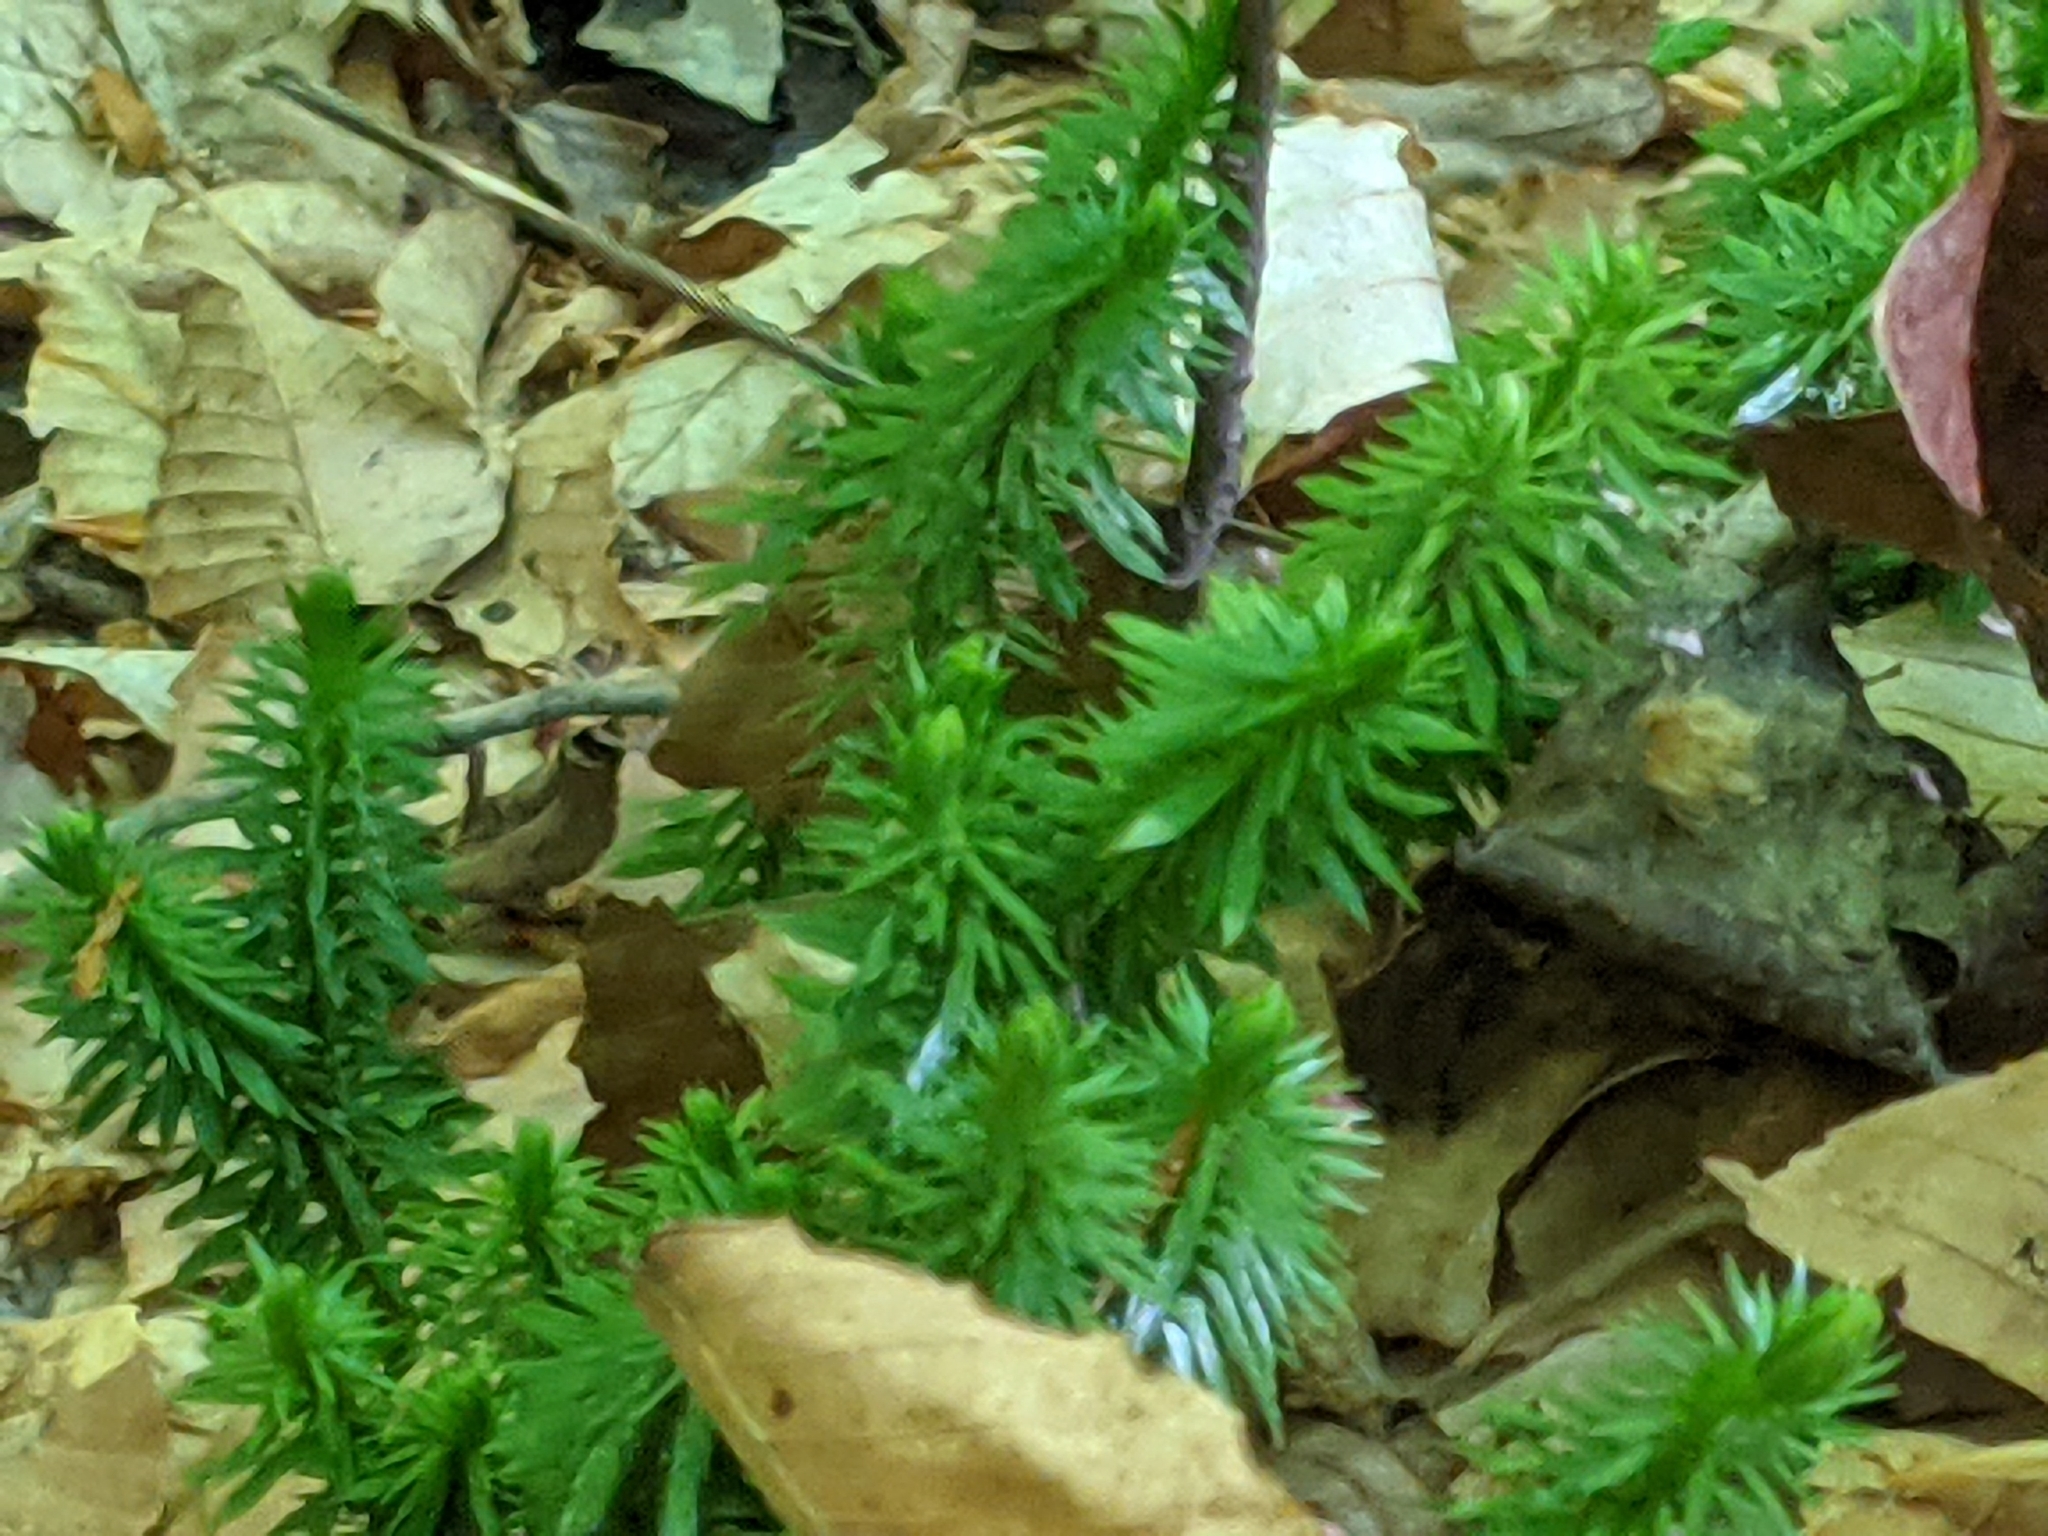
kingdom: Plantae
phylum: Tracheophyta
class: Lycopodiopsida
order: Lycopodiales
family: Lycopodiaceae
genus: Huperzia
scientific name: Huperzia lucidula
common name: Shining clubmoss
